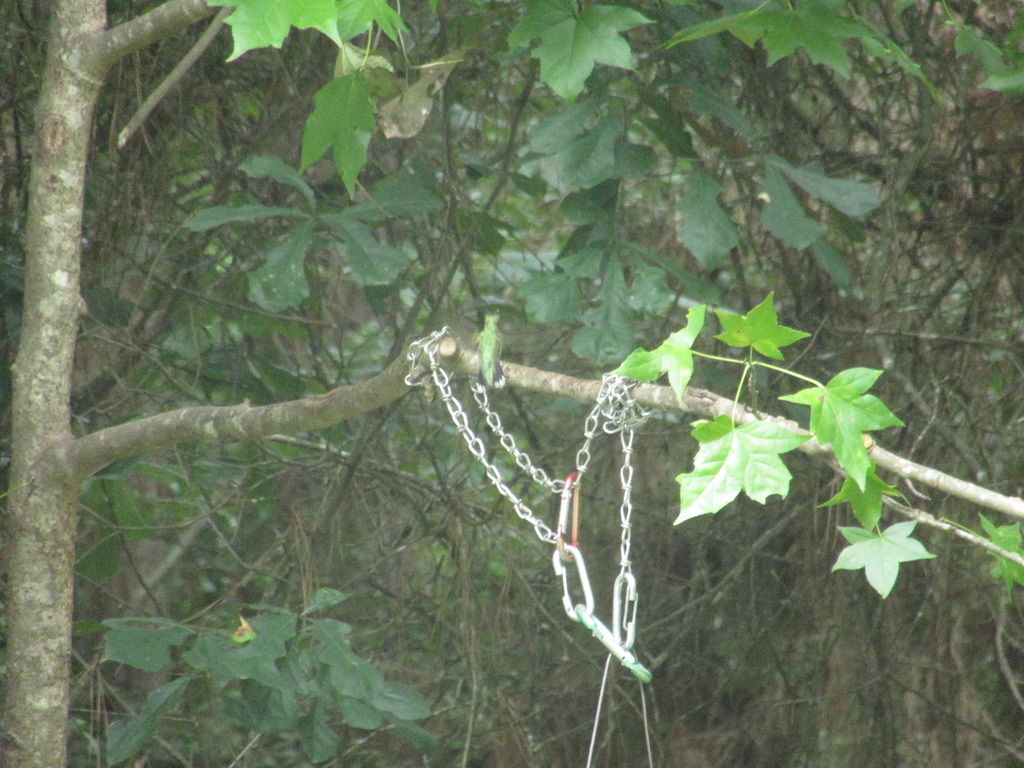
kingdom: Animalia
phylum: Chordata
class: Aves
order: Apodiformes
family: Trochilidae
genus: Archilochus
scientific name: Archilochus colubris
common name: Ruby-throated hummingbird
